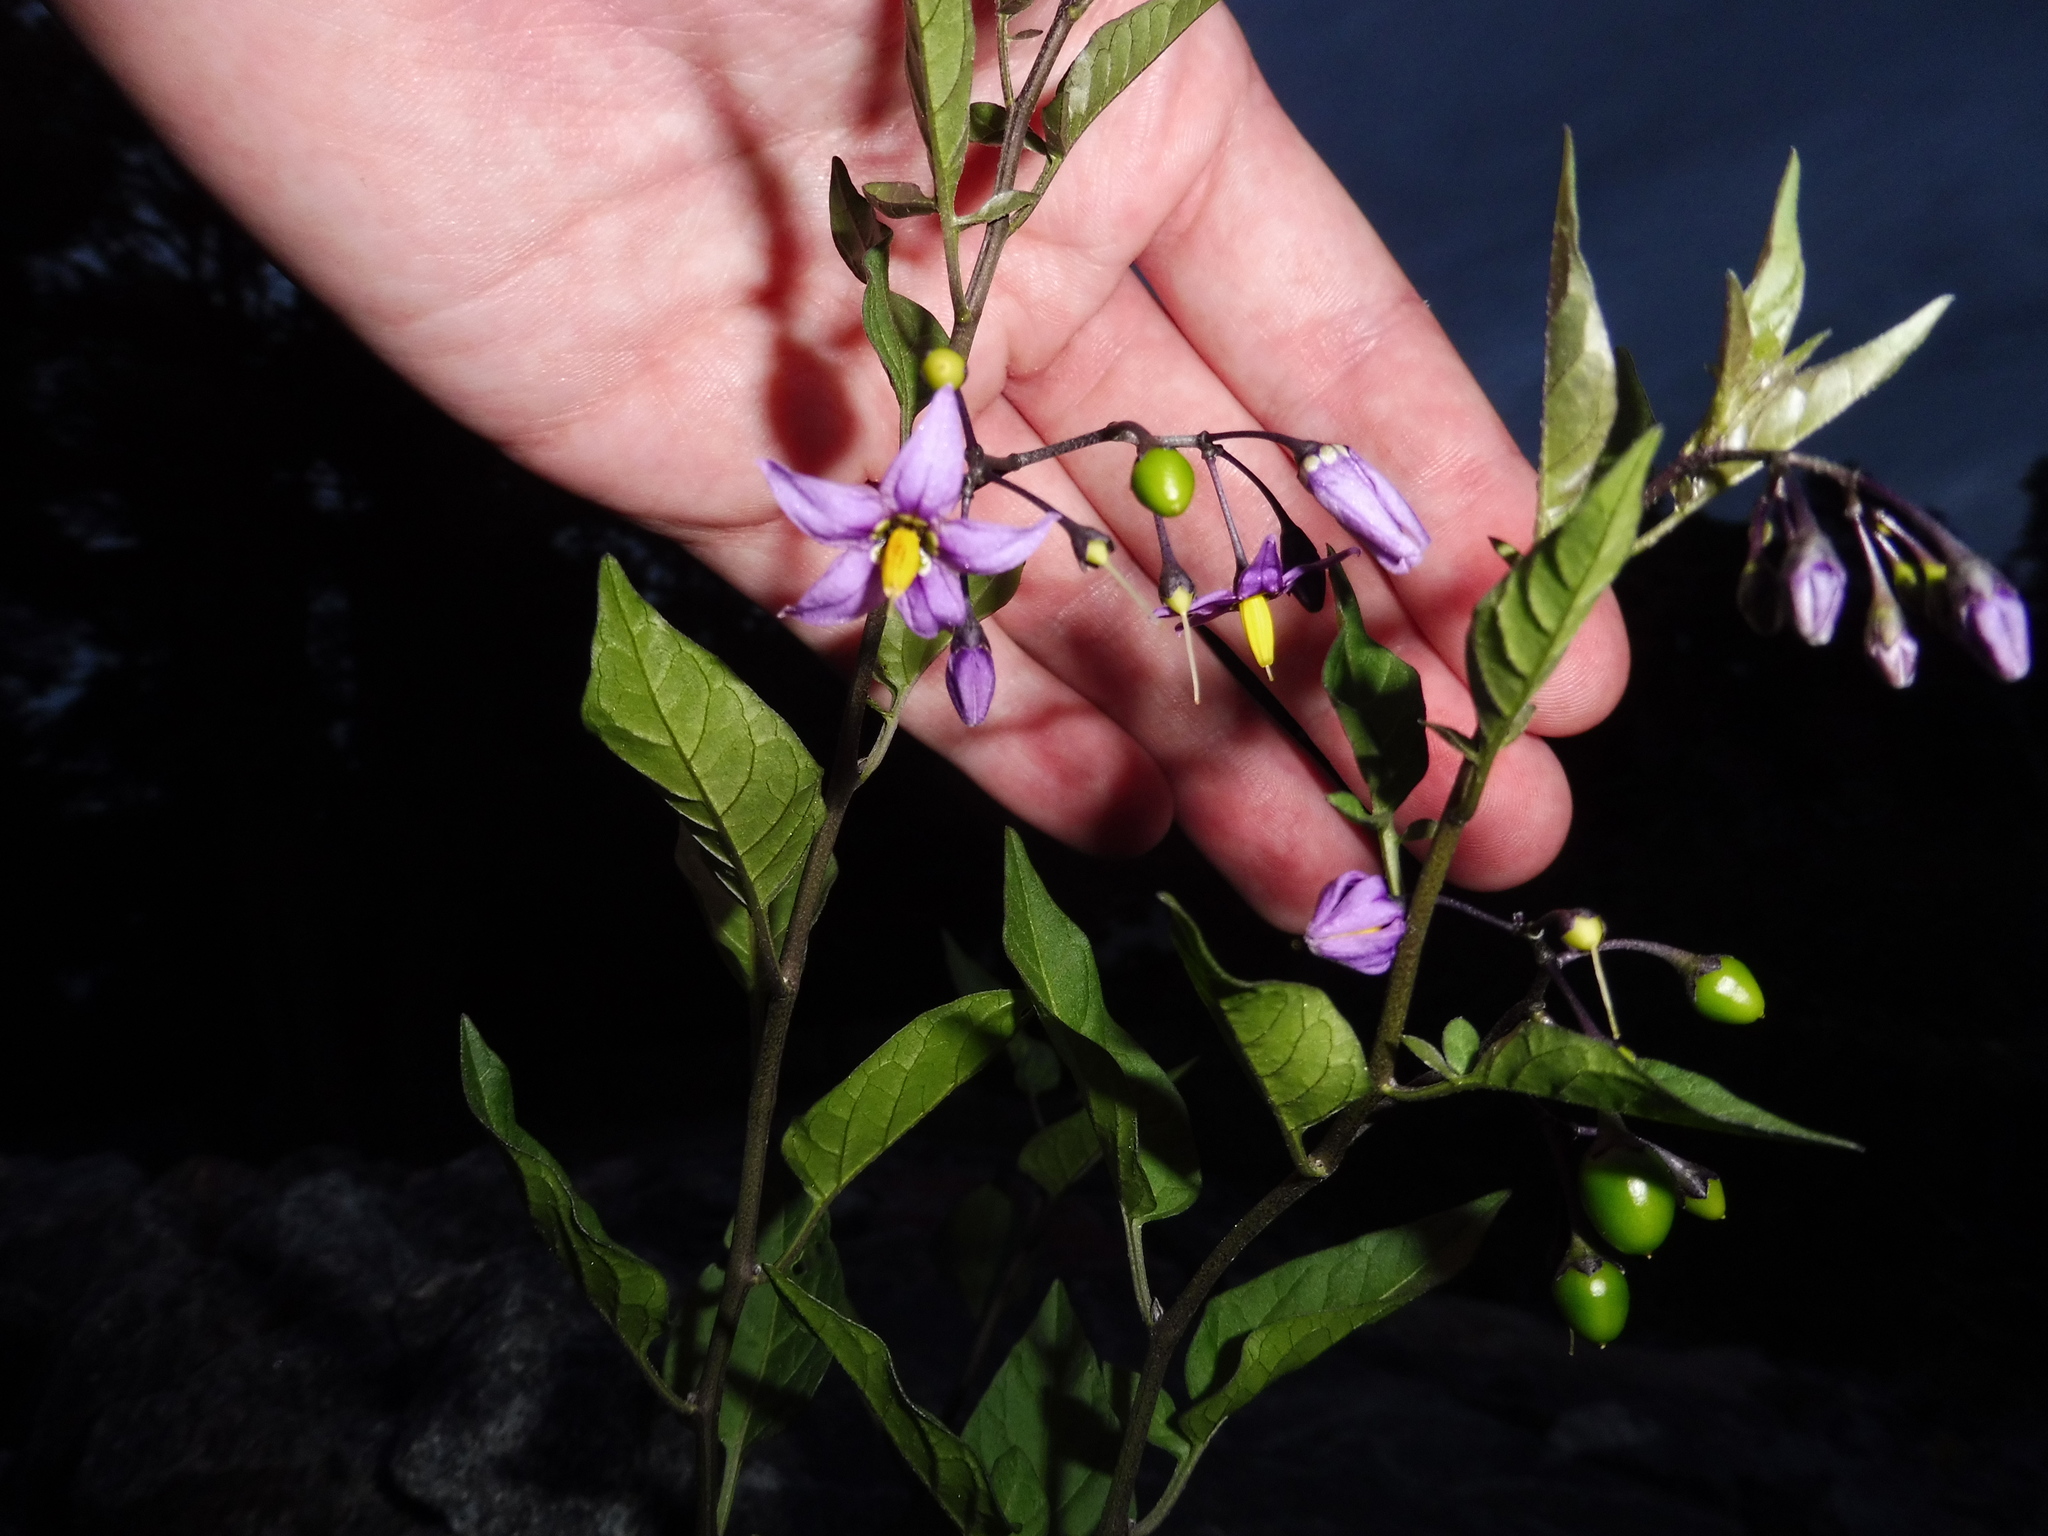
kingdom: Plantae
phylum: Tracheophyta
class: Magnoliopsida
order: Solanales
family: Solanaceae
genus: Solanum
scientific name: Solanum dulcamara
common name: Climbing nightshade
